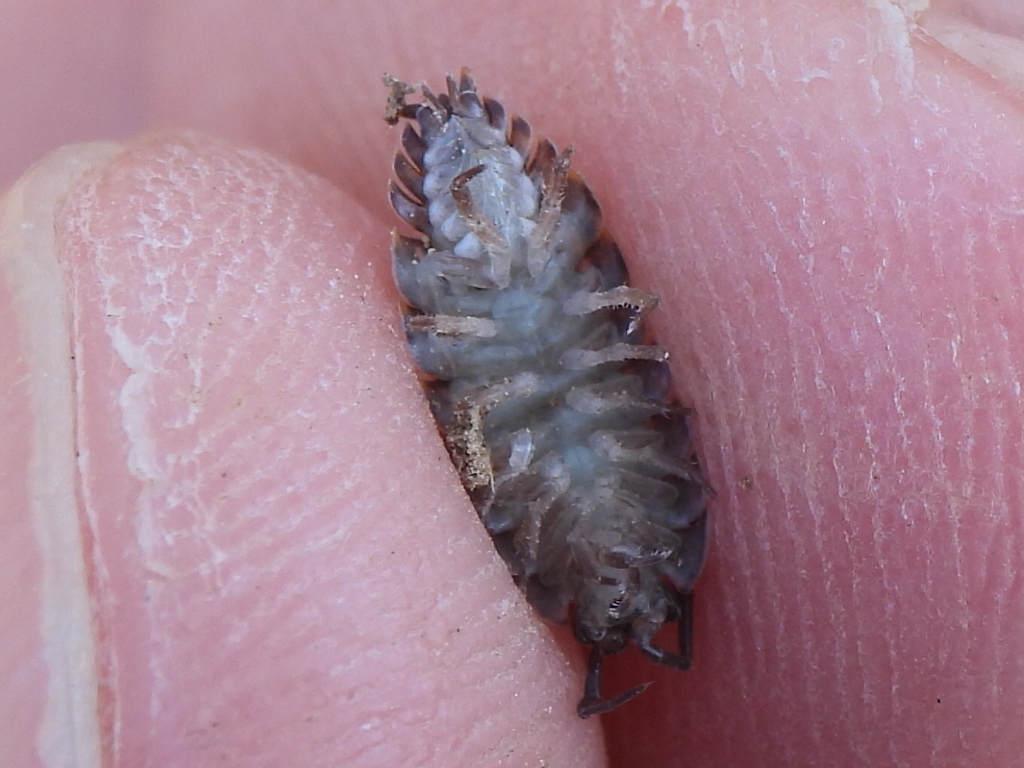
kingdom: Animalia
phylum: Arthropoda
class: Malacostraca
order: Isopoda
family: Trachelipodidae
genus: Trachelipus
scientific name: Trachelipus rathkii
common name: Isopod
